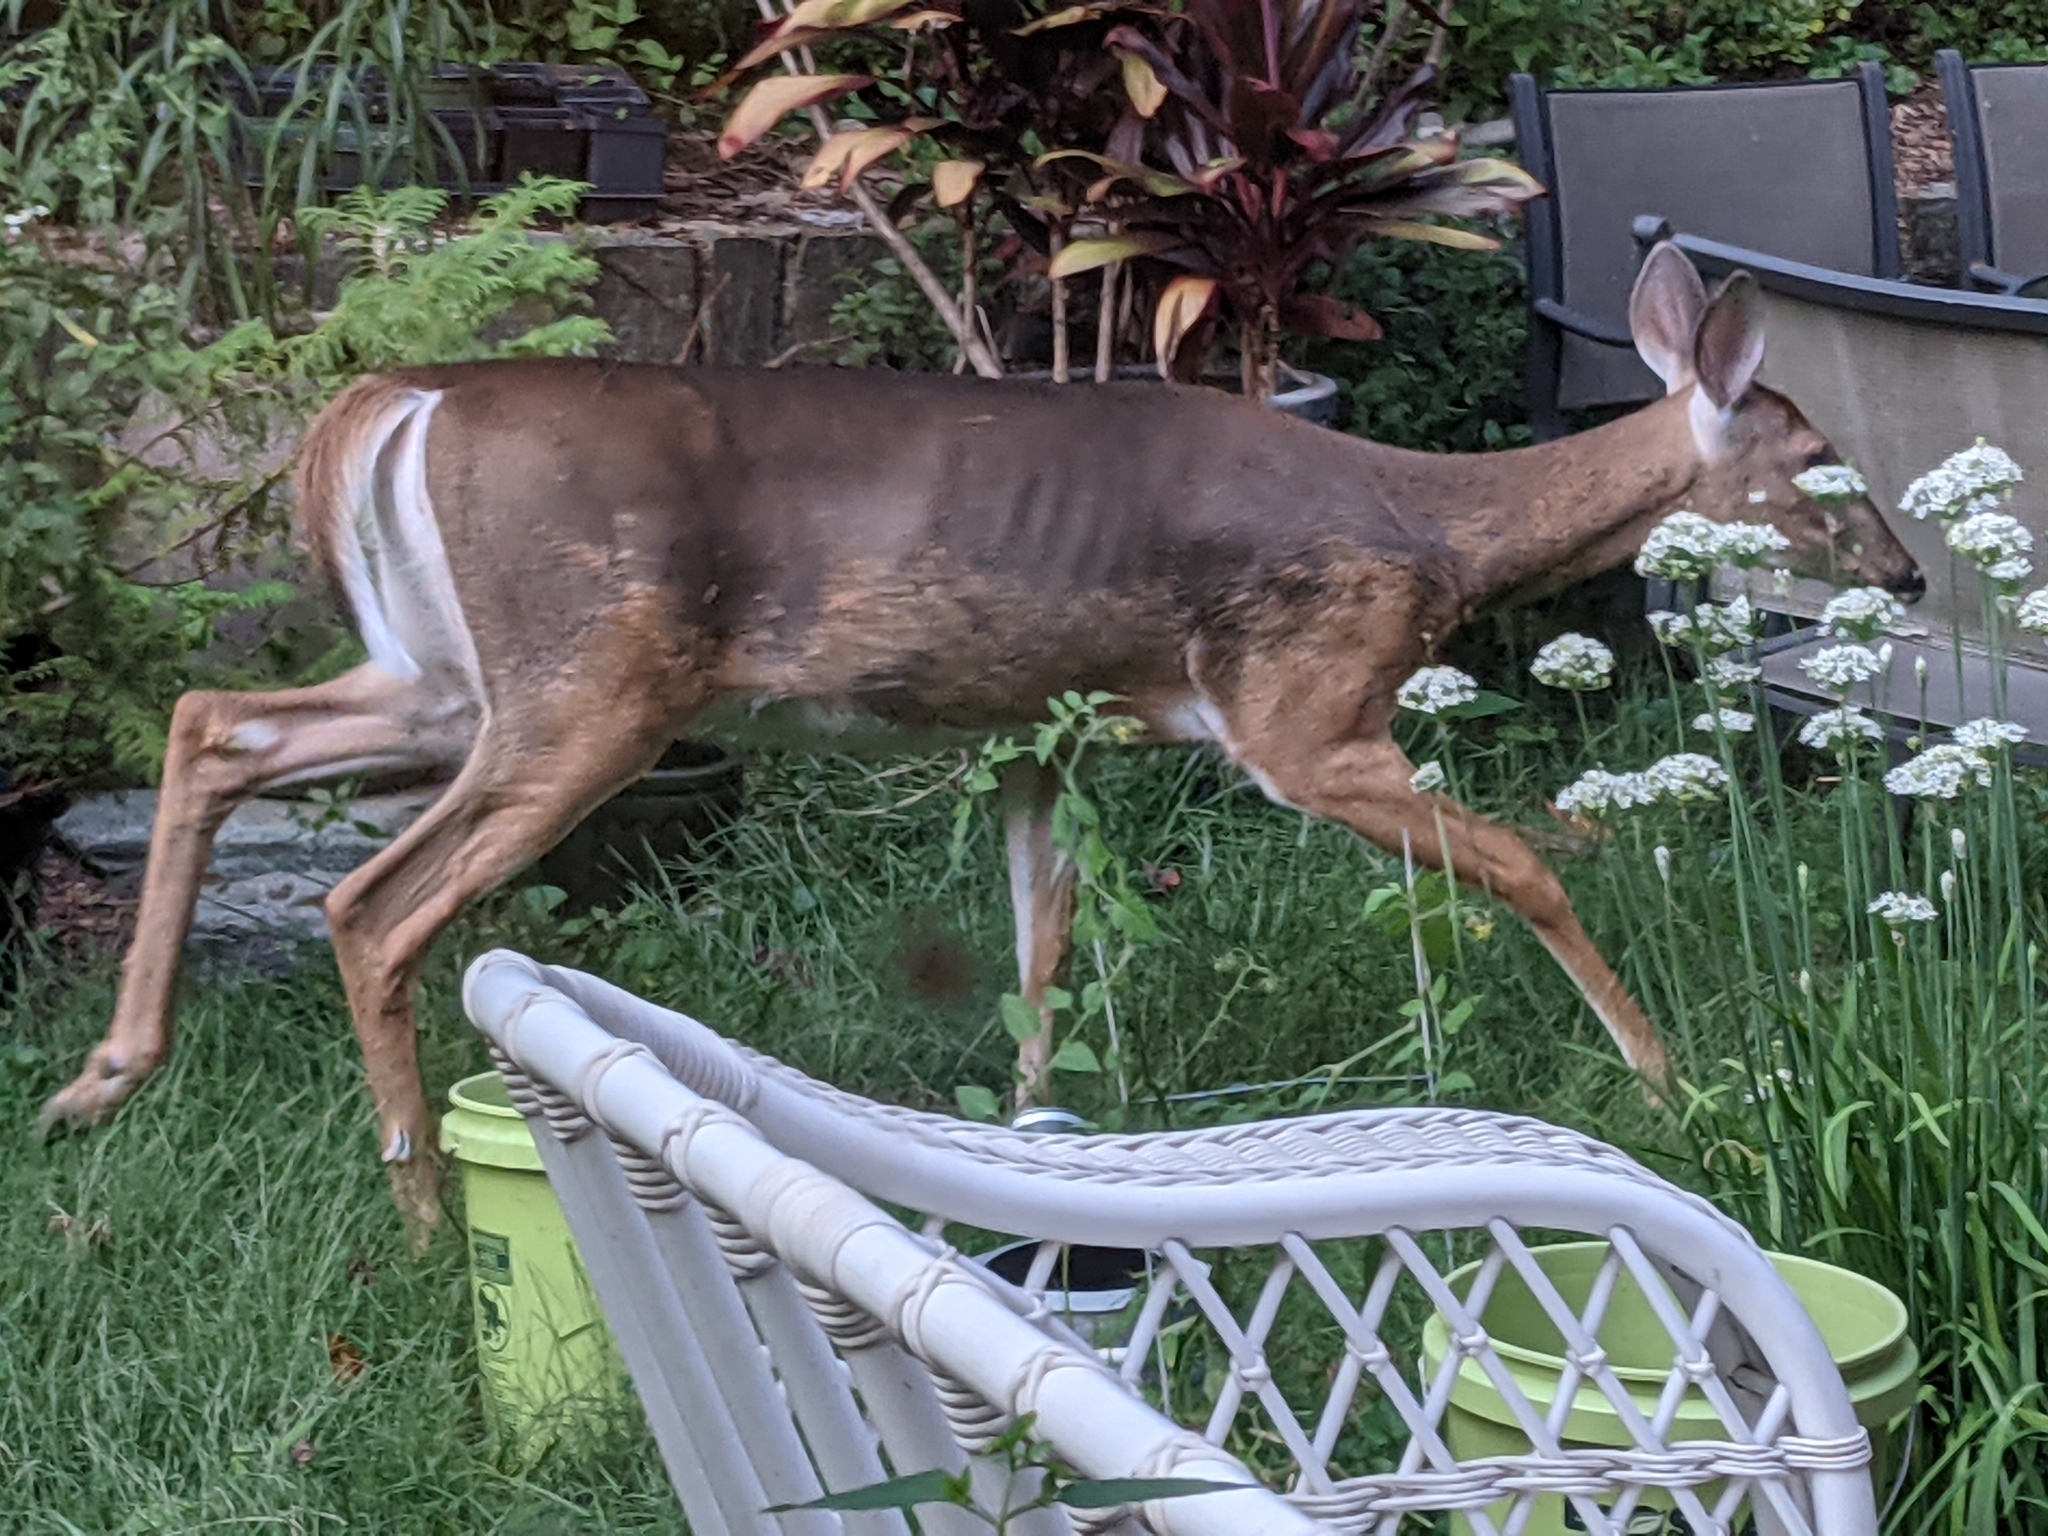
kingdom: Animalia
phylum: Chordata
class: Mammalia
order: Artiodactyla
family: Cervidae
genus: Odocoileus
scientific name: Odocoileus virginianus
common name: White-tailed deer
